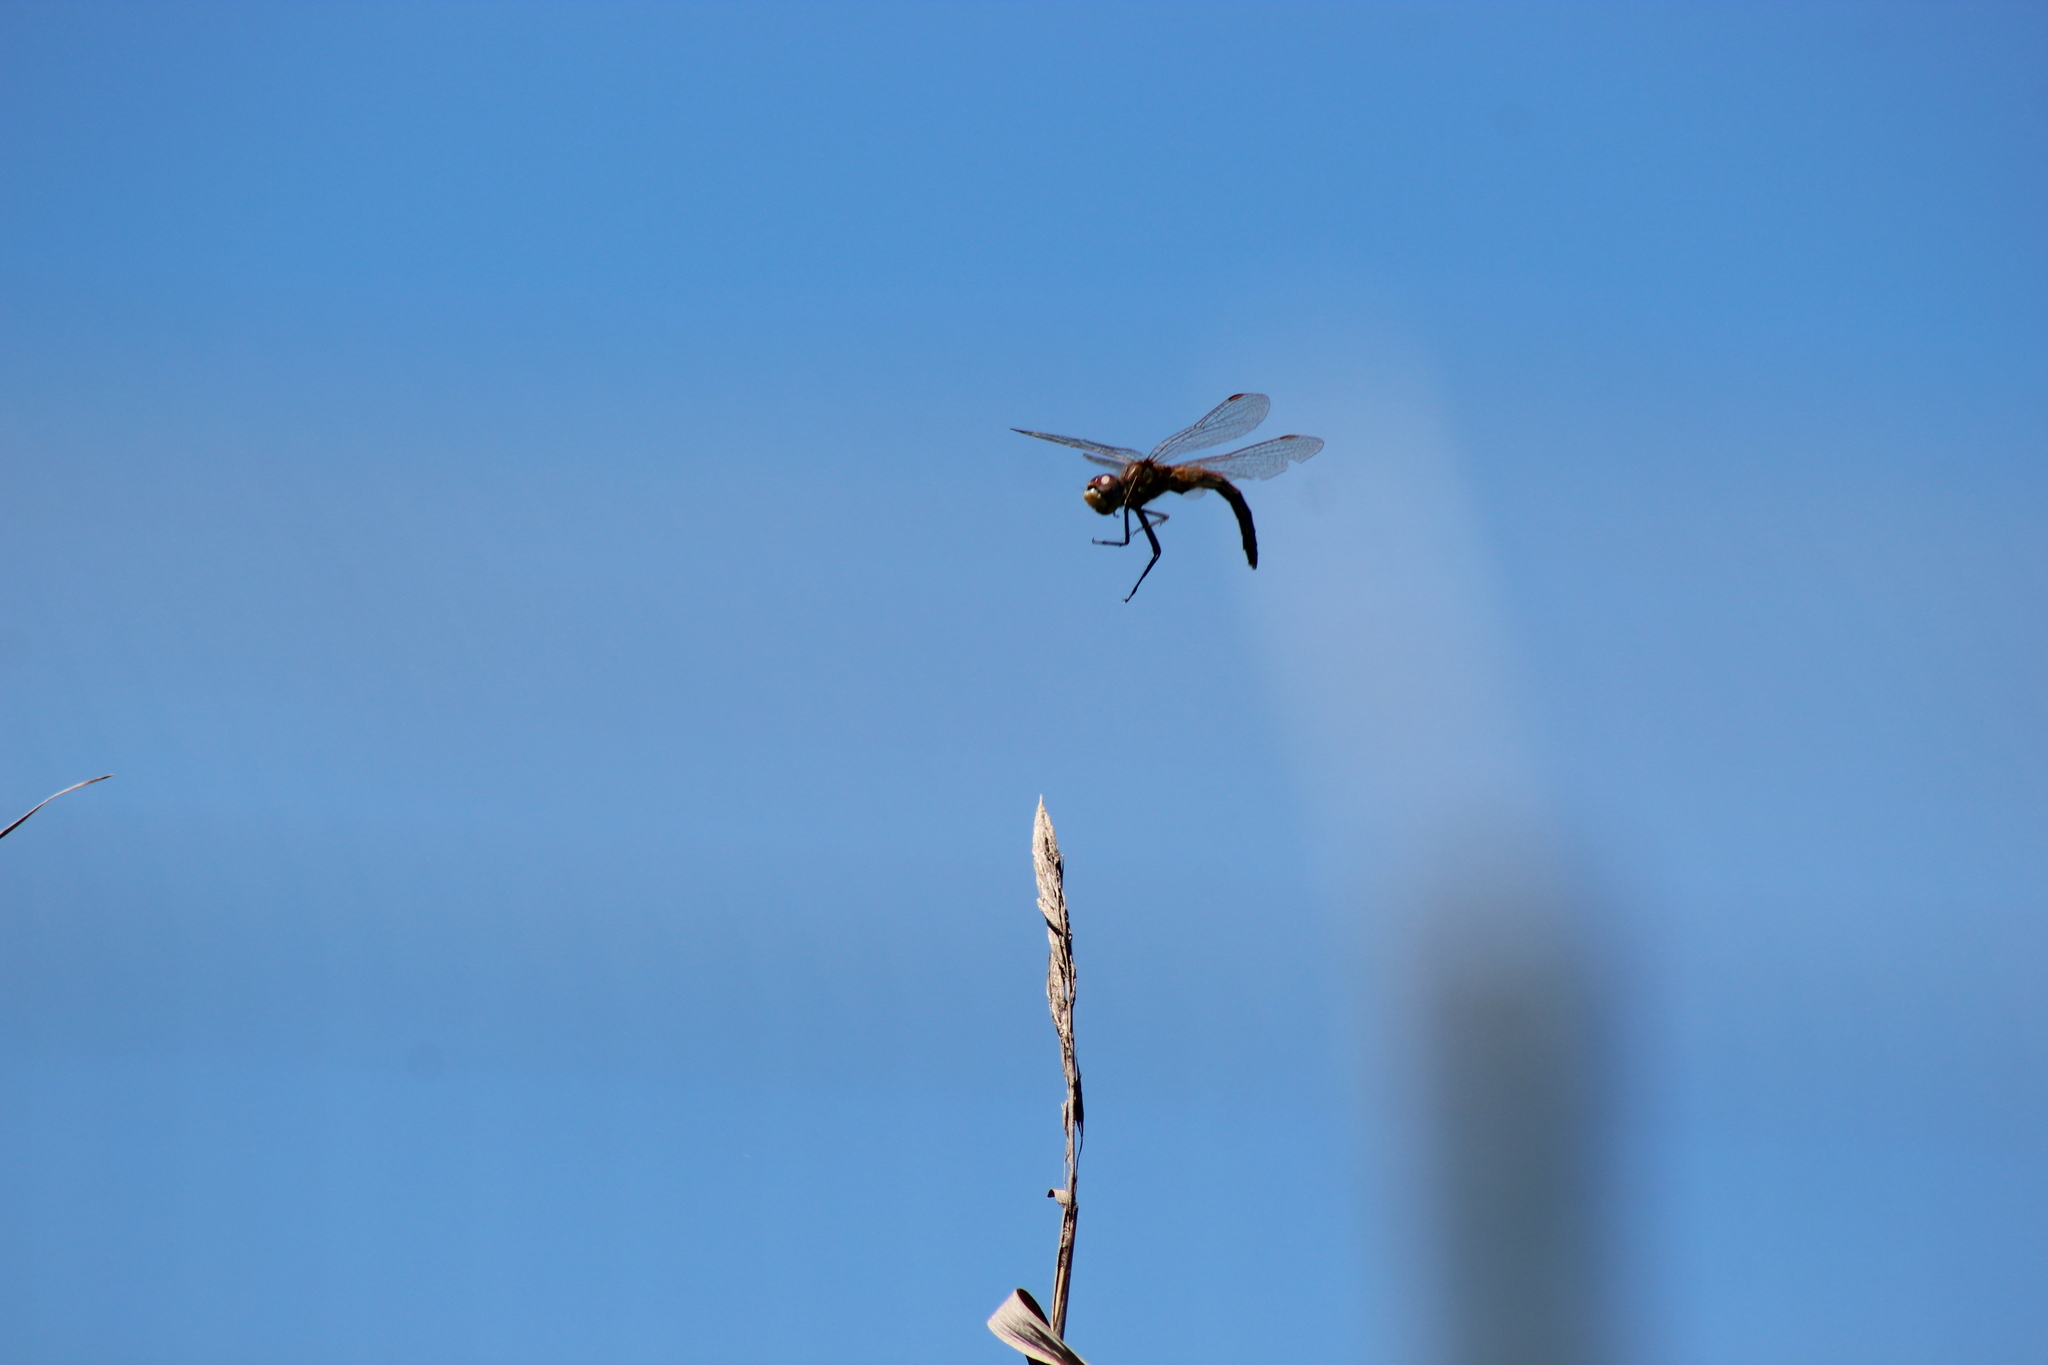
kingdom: Animalia
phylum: Arthropoda
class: Insecta
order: Odonata
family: Libellulidae
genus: Sympetrum
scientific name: Sympetrum fonscolombii
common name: Red-veined darter
